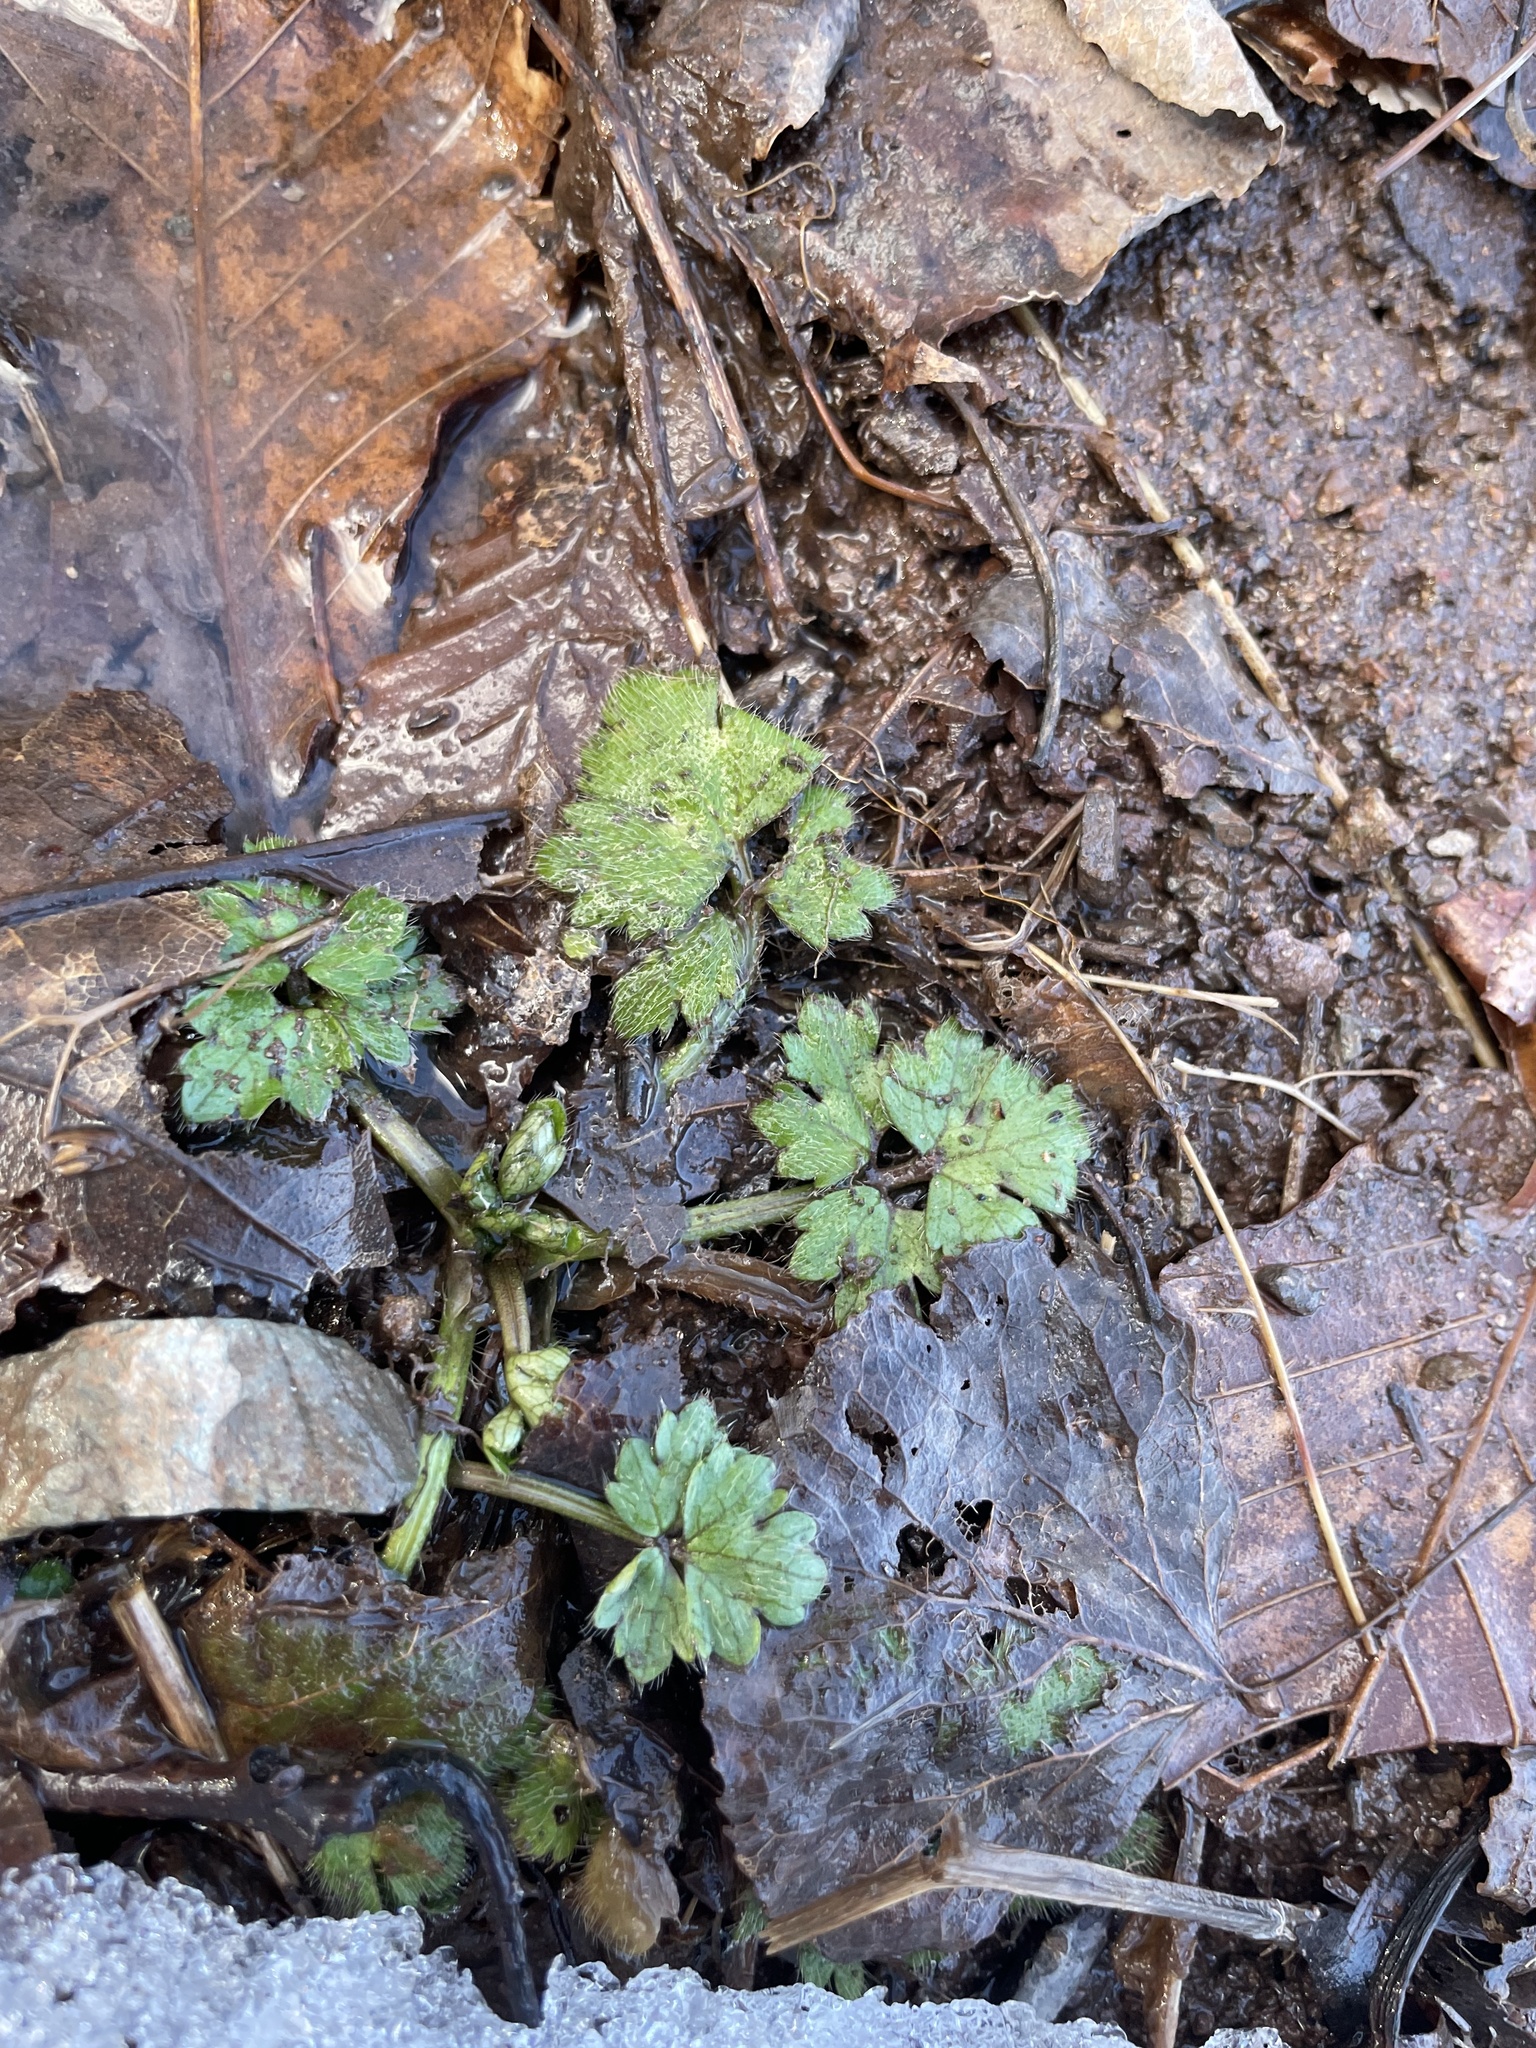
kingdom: Plantae
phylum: Tracheophyta
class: Magnoliopsida
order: Ranunculales
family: Ranunculaceae
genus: Ranunculus
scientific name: Ranunculus repens
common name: Creeping buttercup
